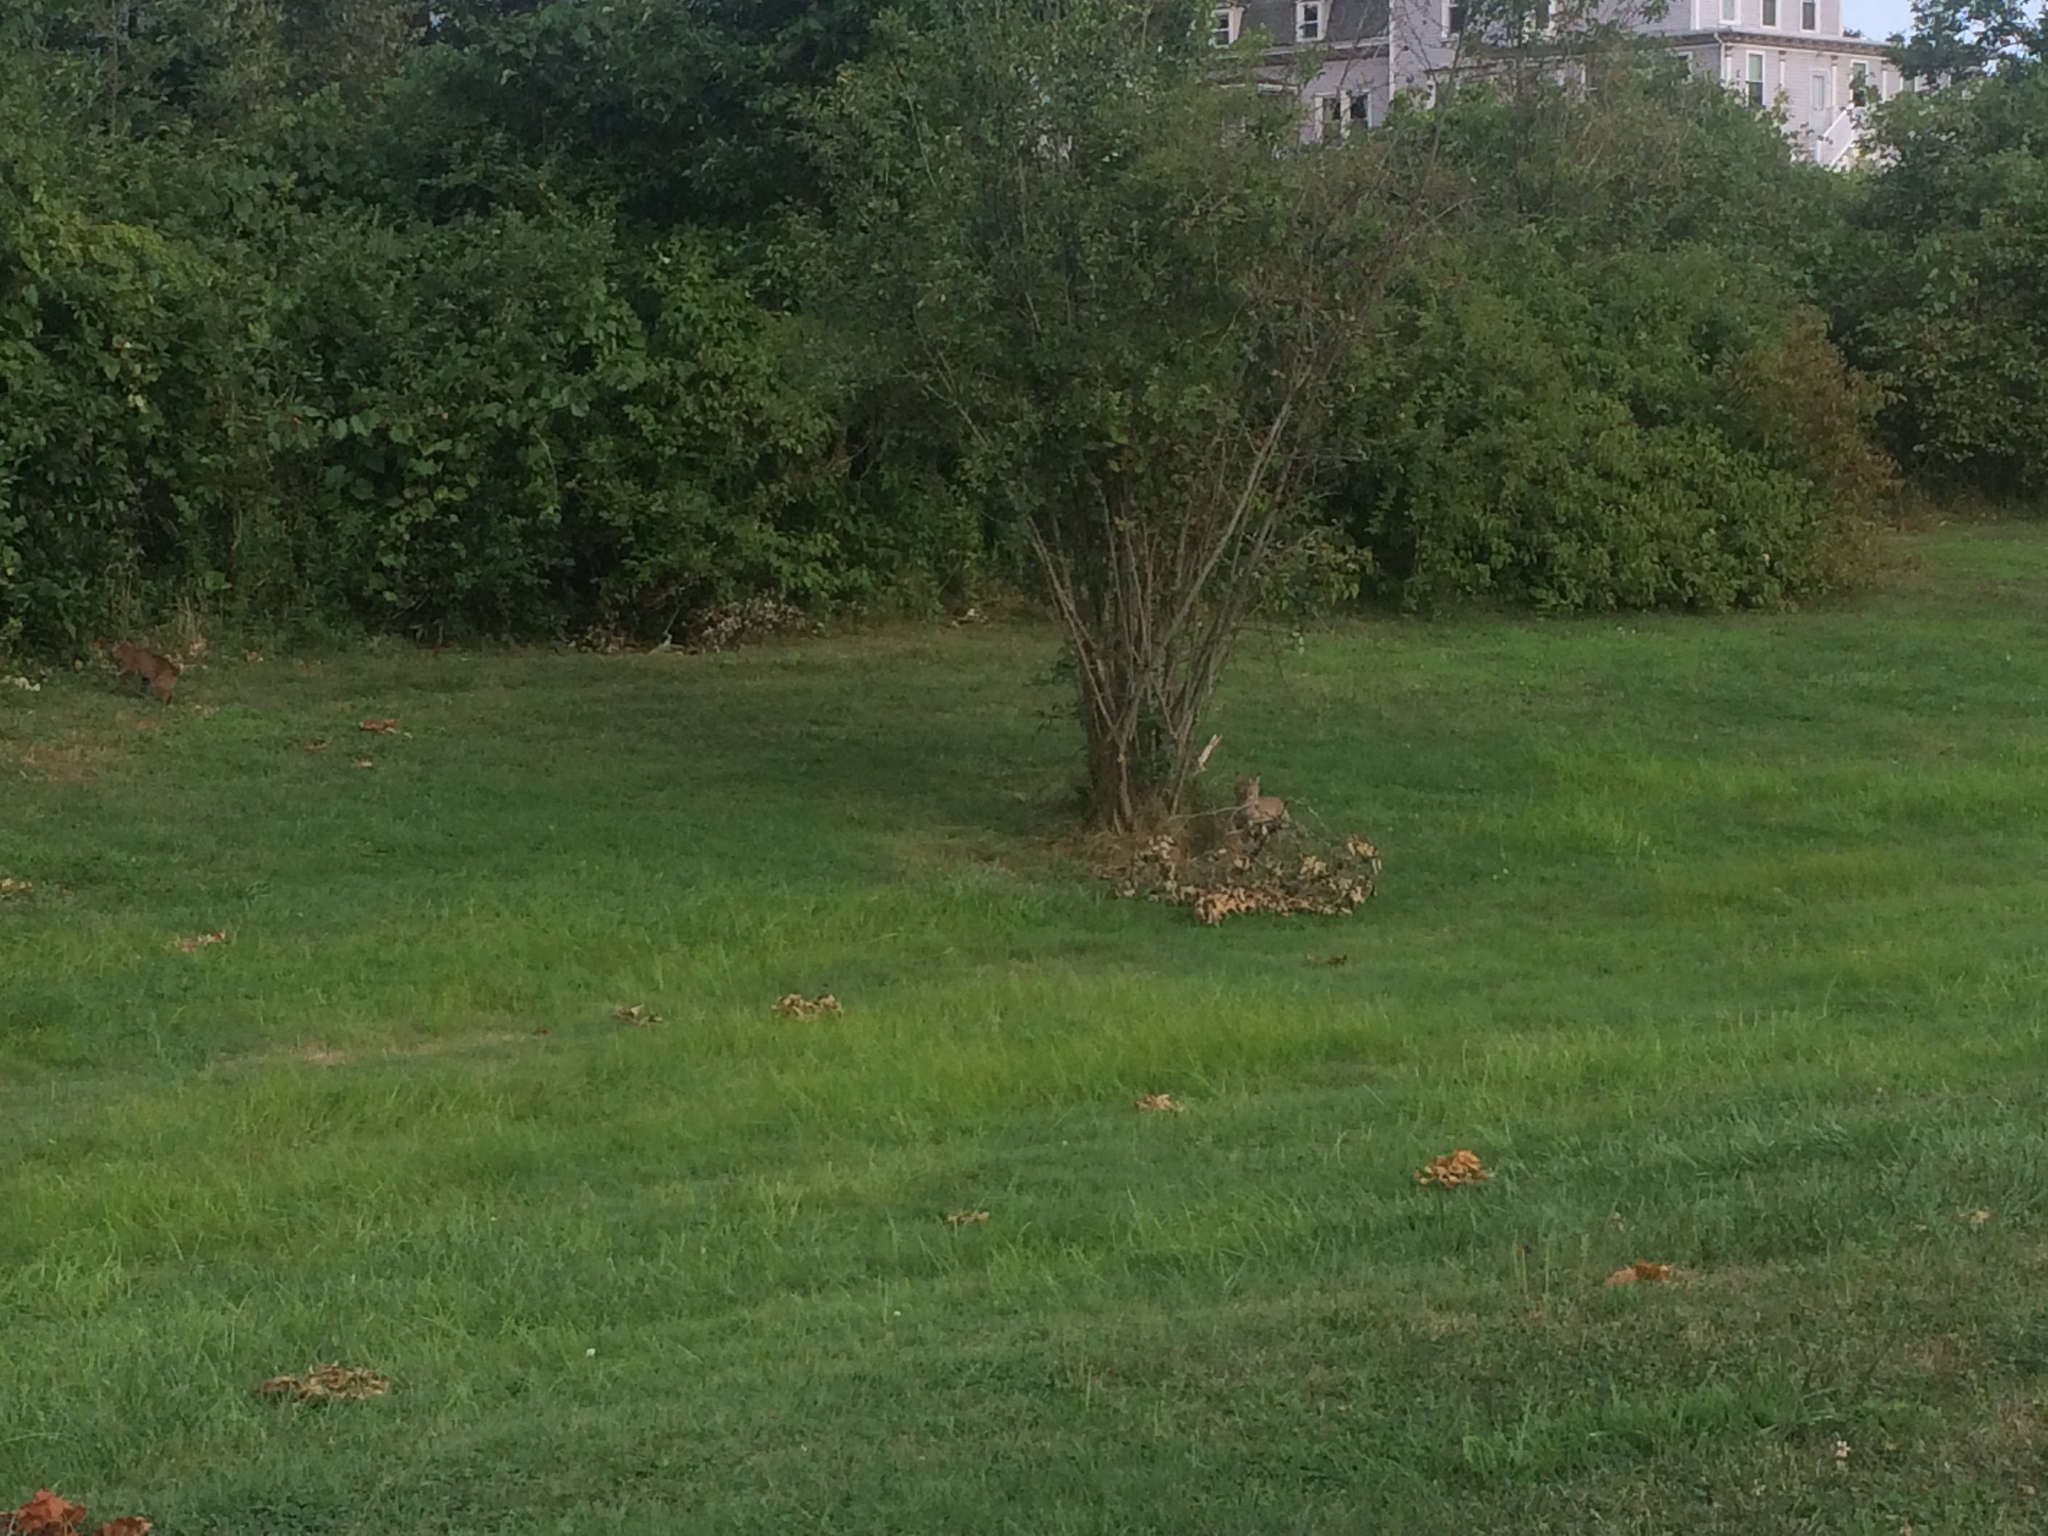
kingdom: Animalia
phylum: Chordata
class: Mammalia
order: Carnivora
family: Felidae
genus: Lynx
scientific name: Lynx rufus
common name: Bobcat
